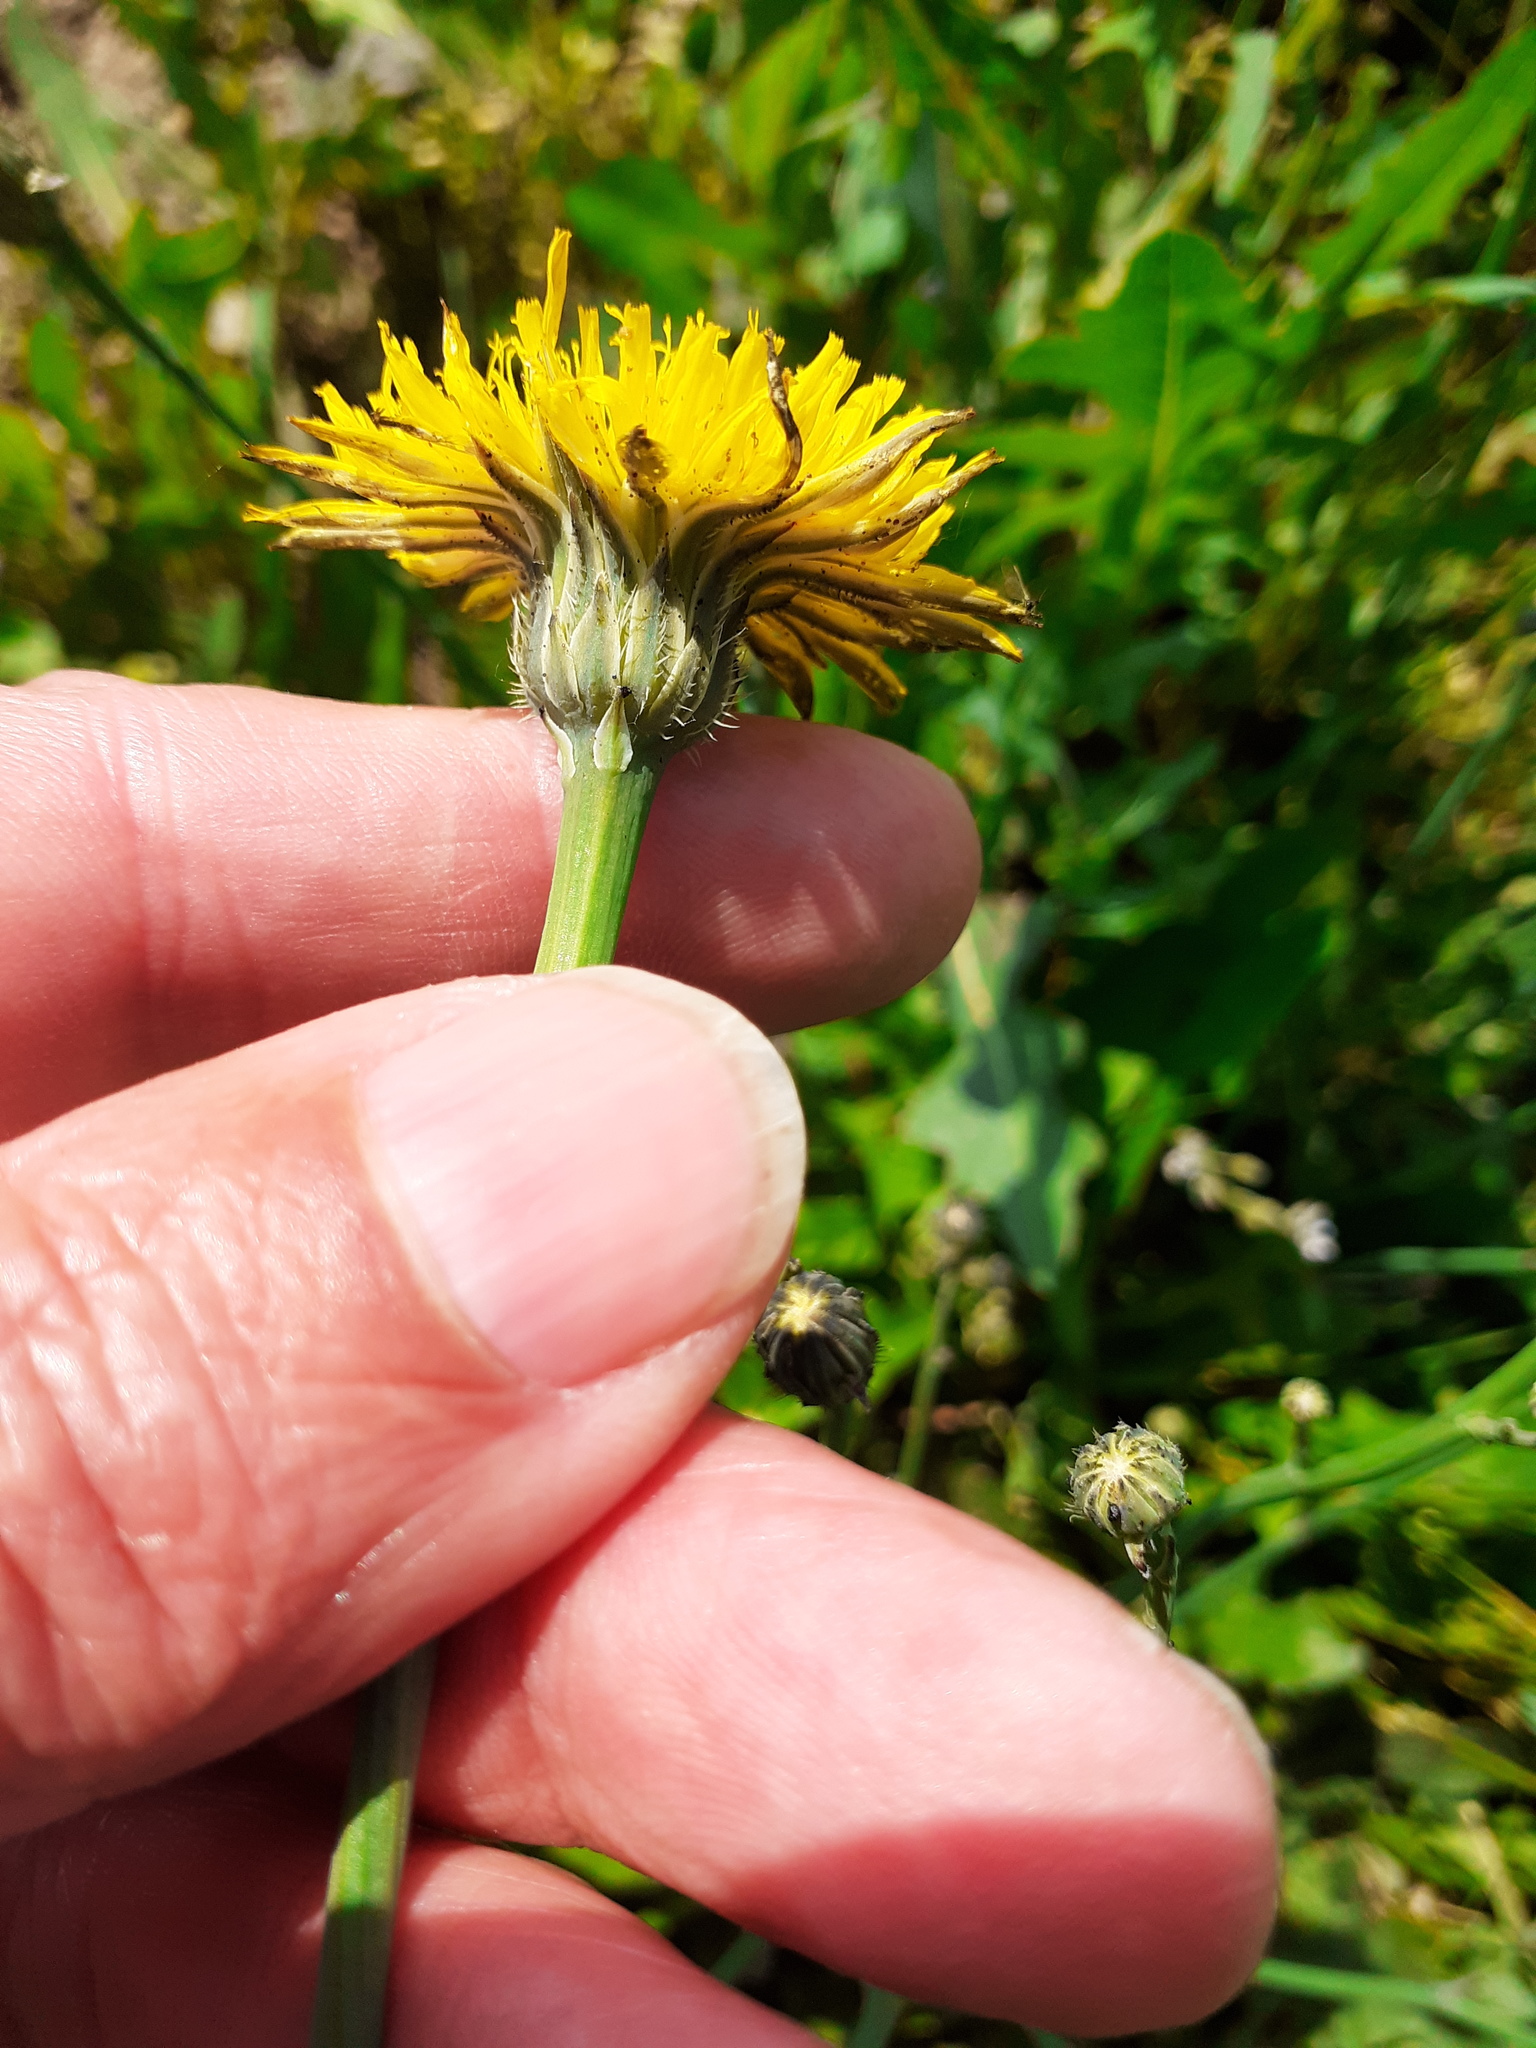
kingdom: Plantae
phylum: Tracheophyta
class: Magnoliopsida
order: Asterales
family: Asteraceae
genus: Hypochaeris
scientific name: Hypochaeris radicata
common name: Flatweed
